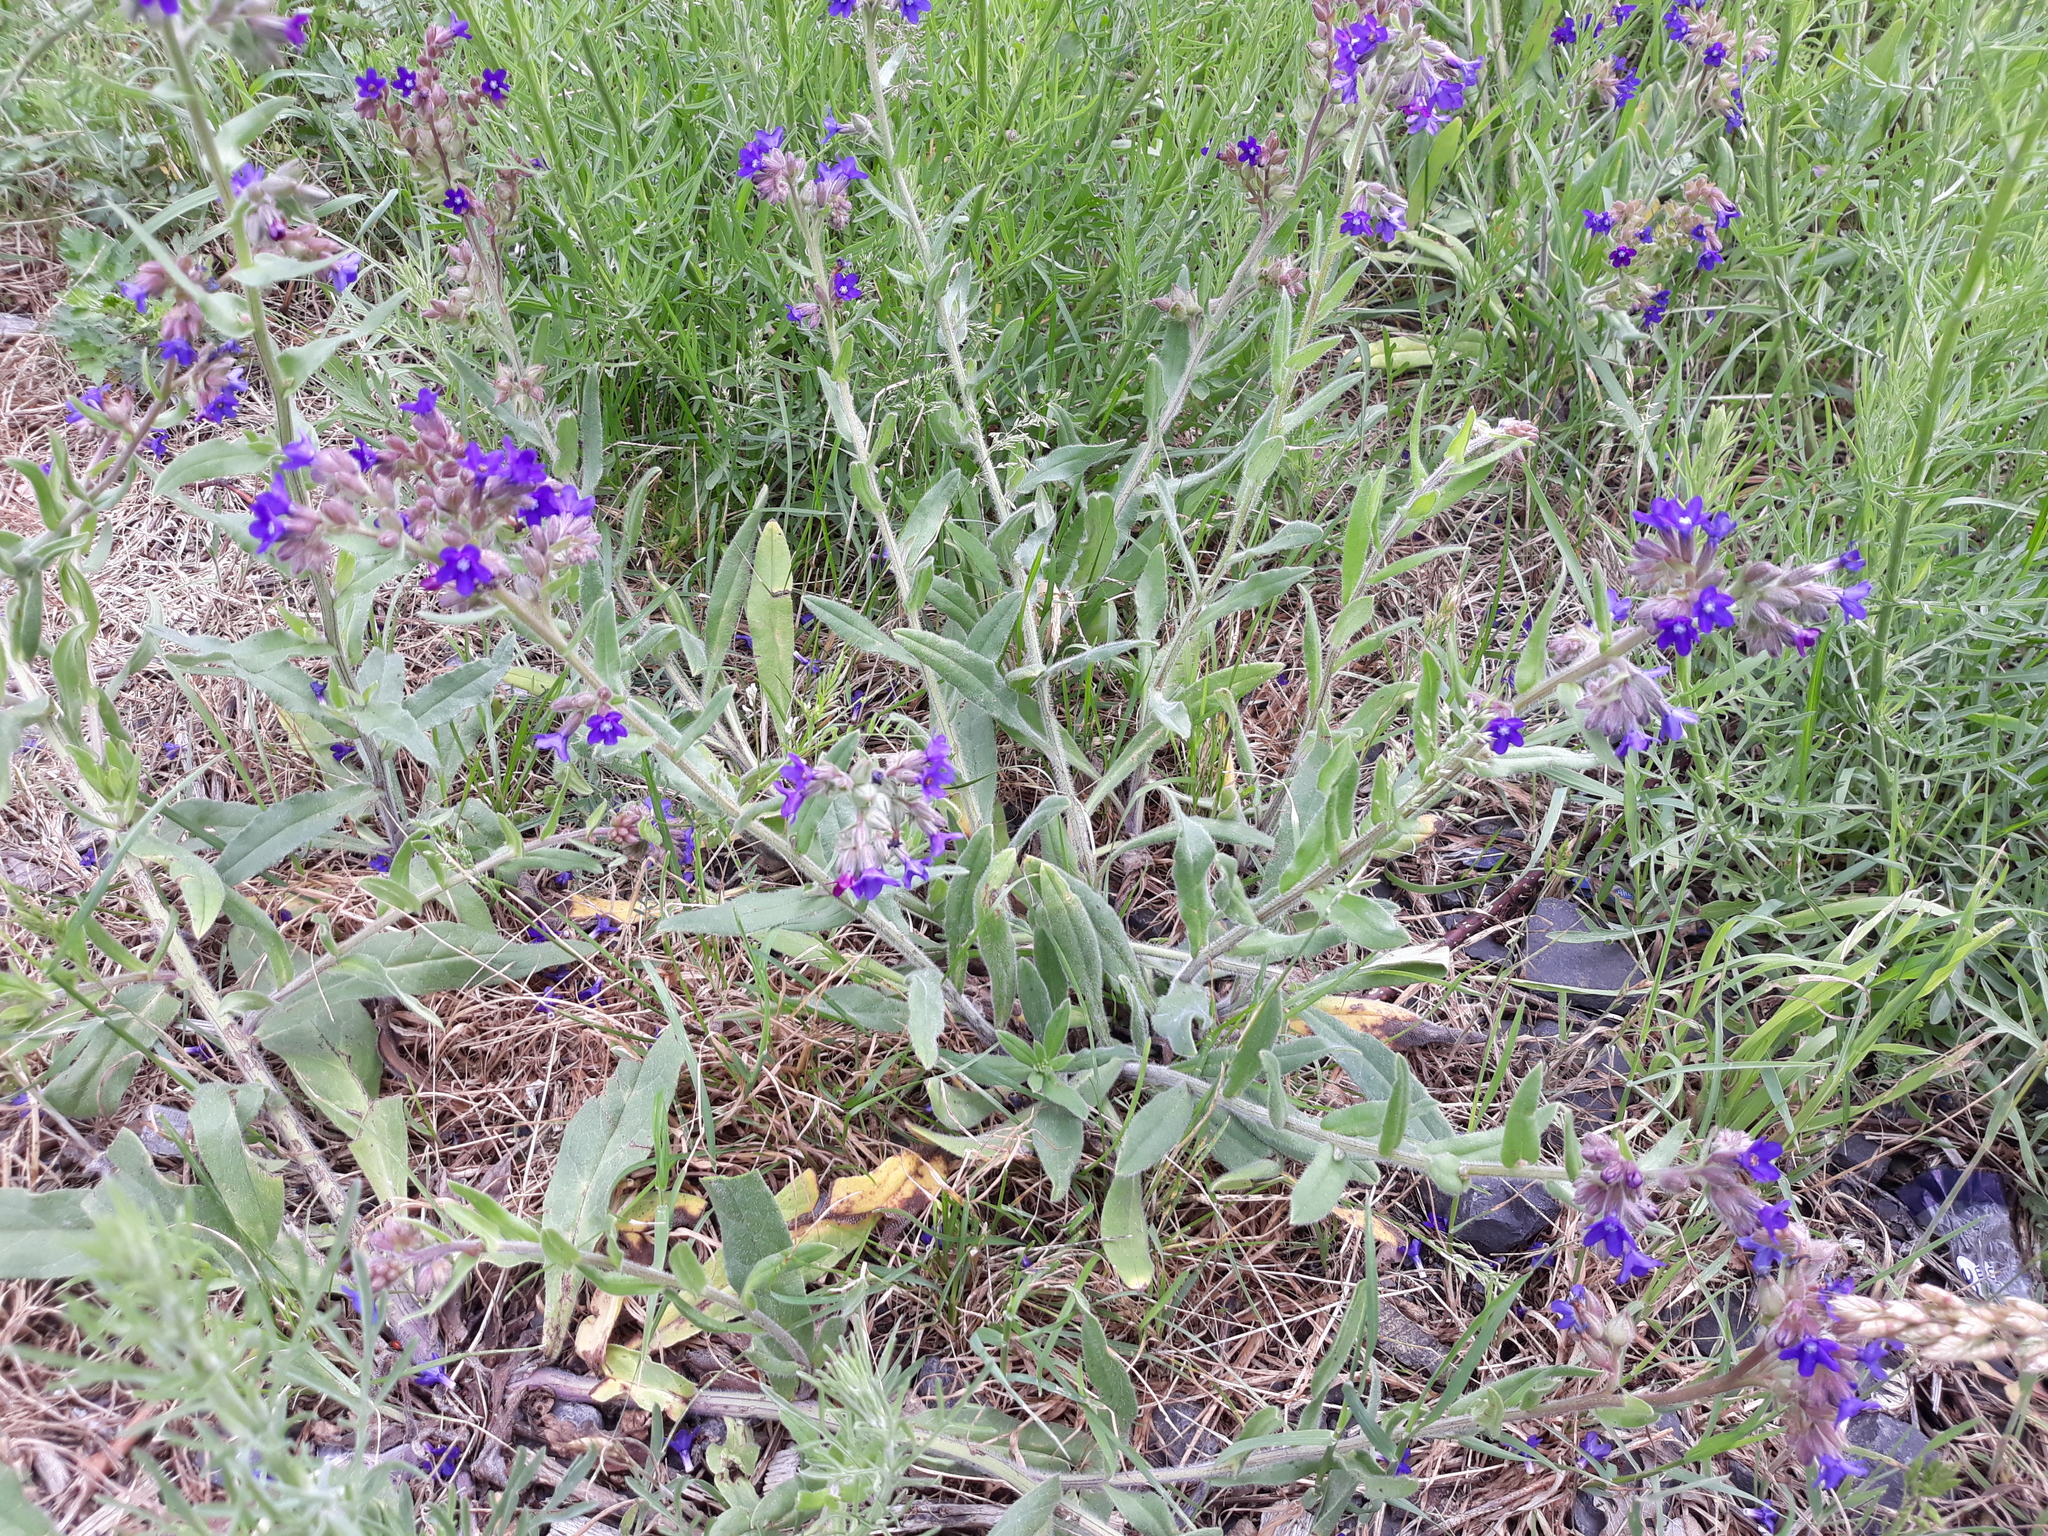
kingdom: Plantae
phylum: Tracheophyta
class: Magnoliopsida
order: Boraginales
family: Boraginaceae
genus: Anchusa
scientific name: Anchusa officinalis
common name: Alkanet
